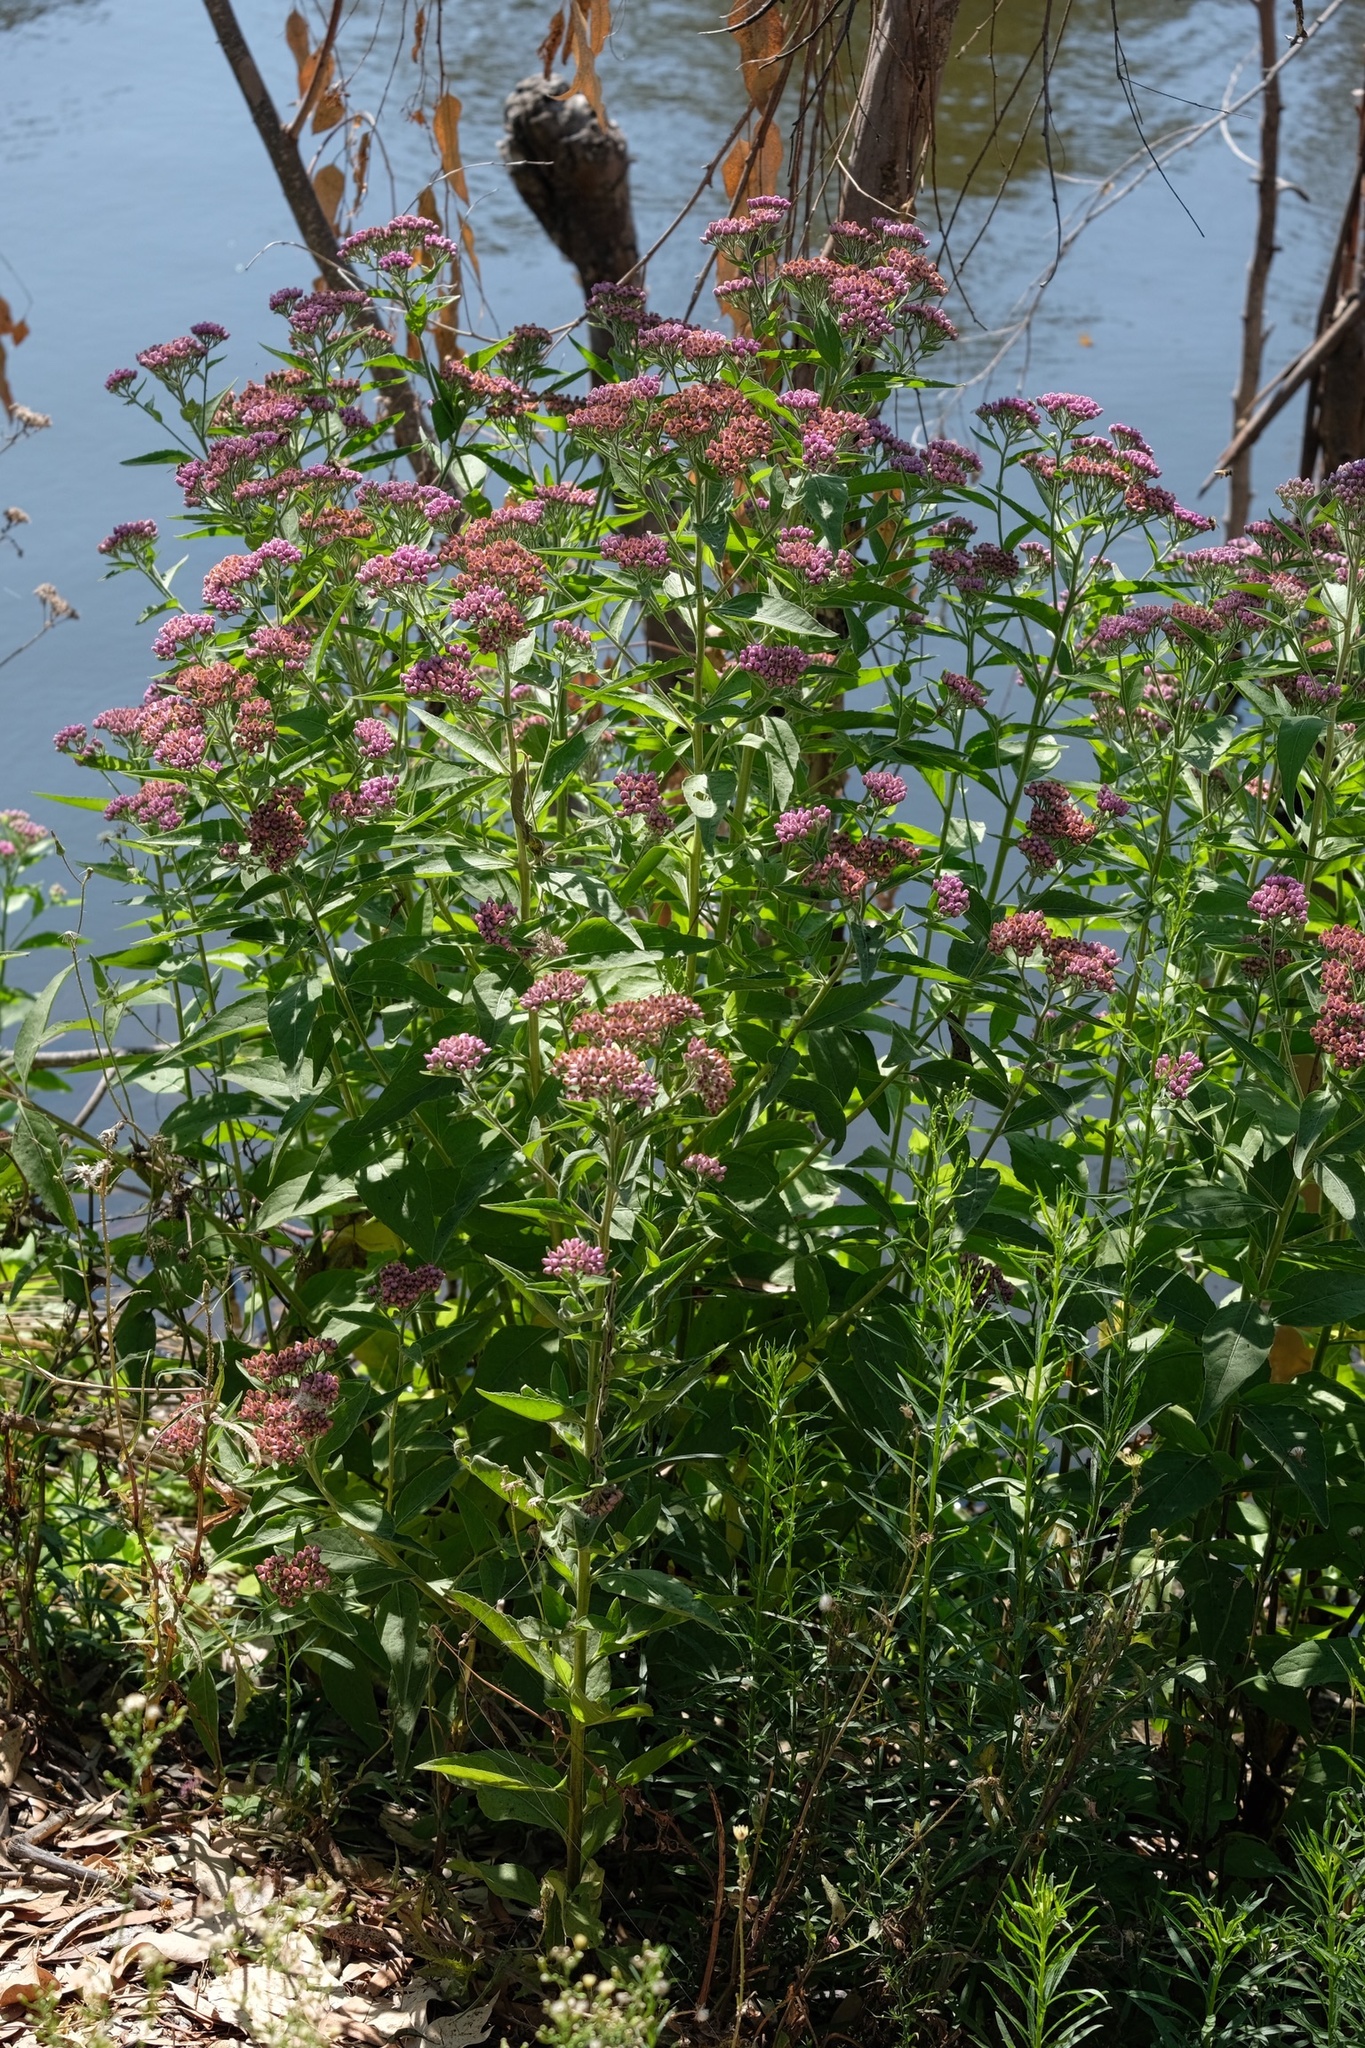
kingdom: Plantae
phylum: Tracheophyta
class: Magnoliopsida
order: Asterales
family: Asteraceae
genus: Pluchea
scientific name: Pluchea odorata
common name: Saltmarsh fleabane
